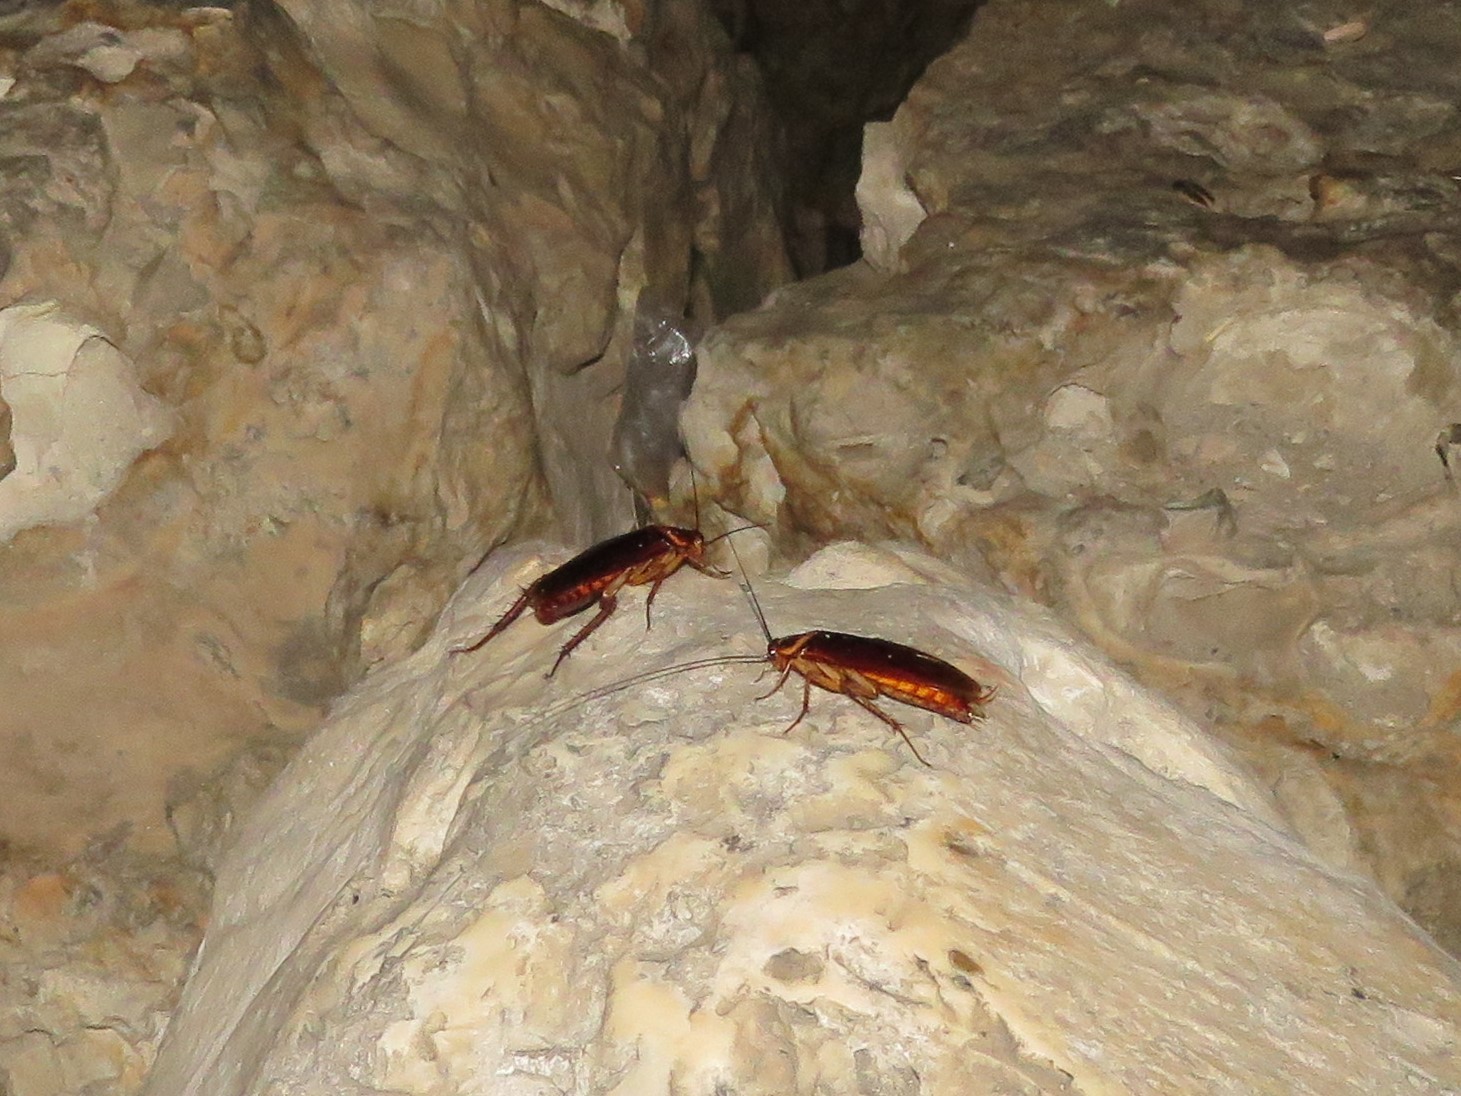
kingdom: Animalia
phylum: Arthropoda
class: Insecta
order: Blattodea
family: Blattidae
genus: Periplaneta
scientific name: Periplaneta americana
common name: American cockroach
